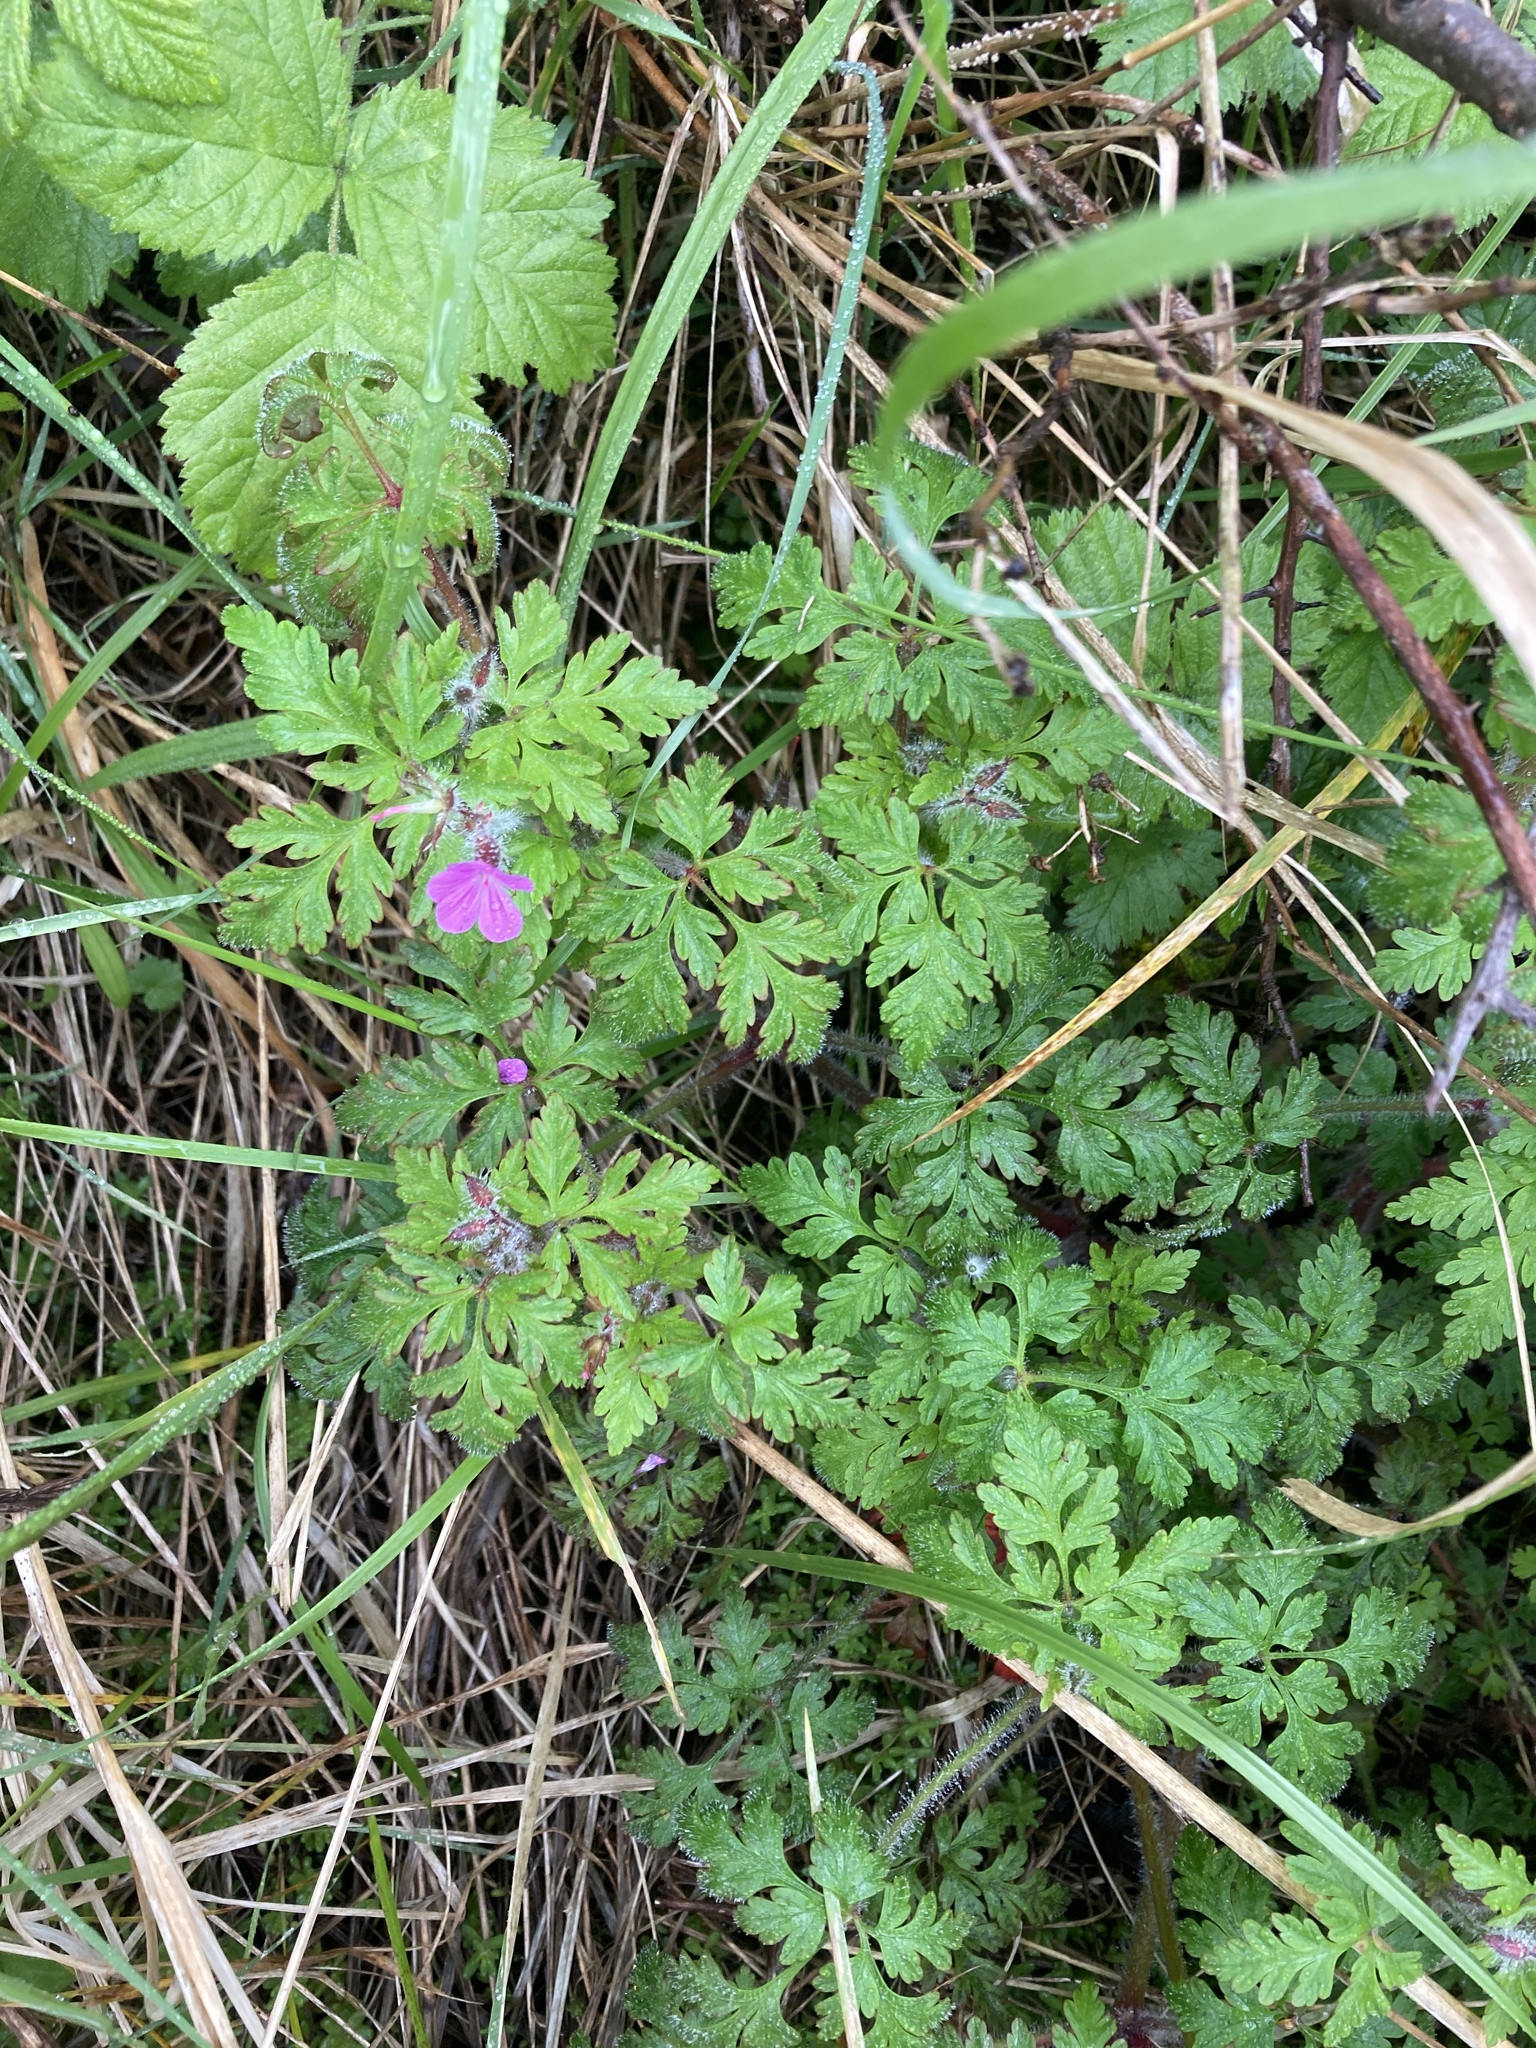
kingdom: Plantae
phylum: Tracheophyta
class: Magnoliopsida
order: Geraniales
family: Geraniaceae
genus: Geranium
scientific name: Geranium robertianum
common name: Herb-robert
